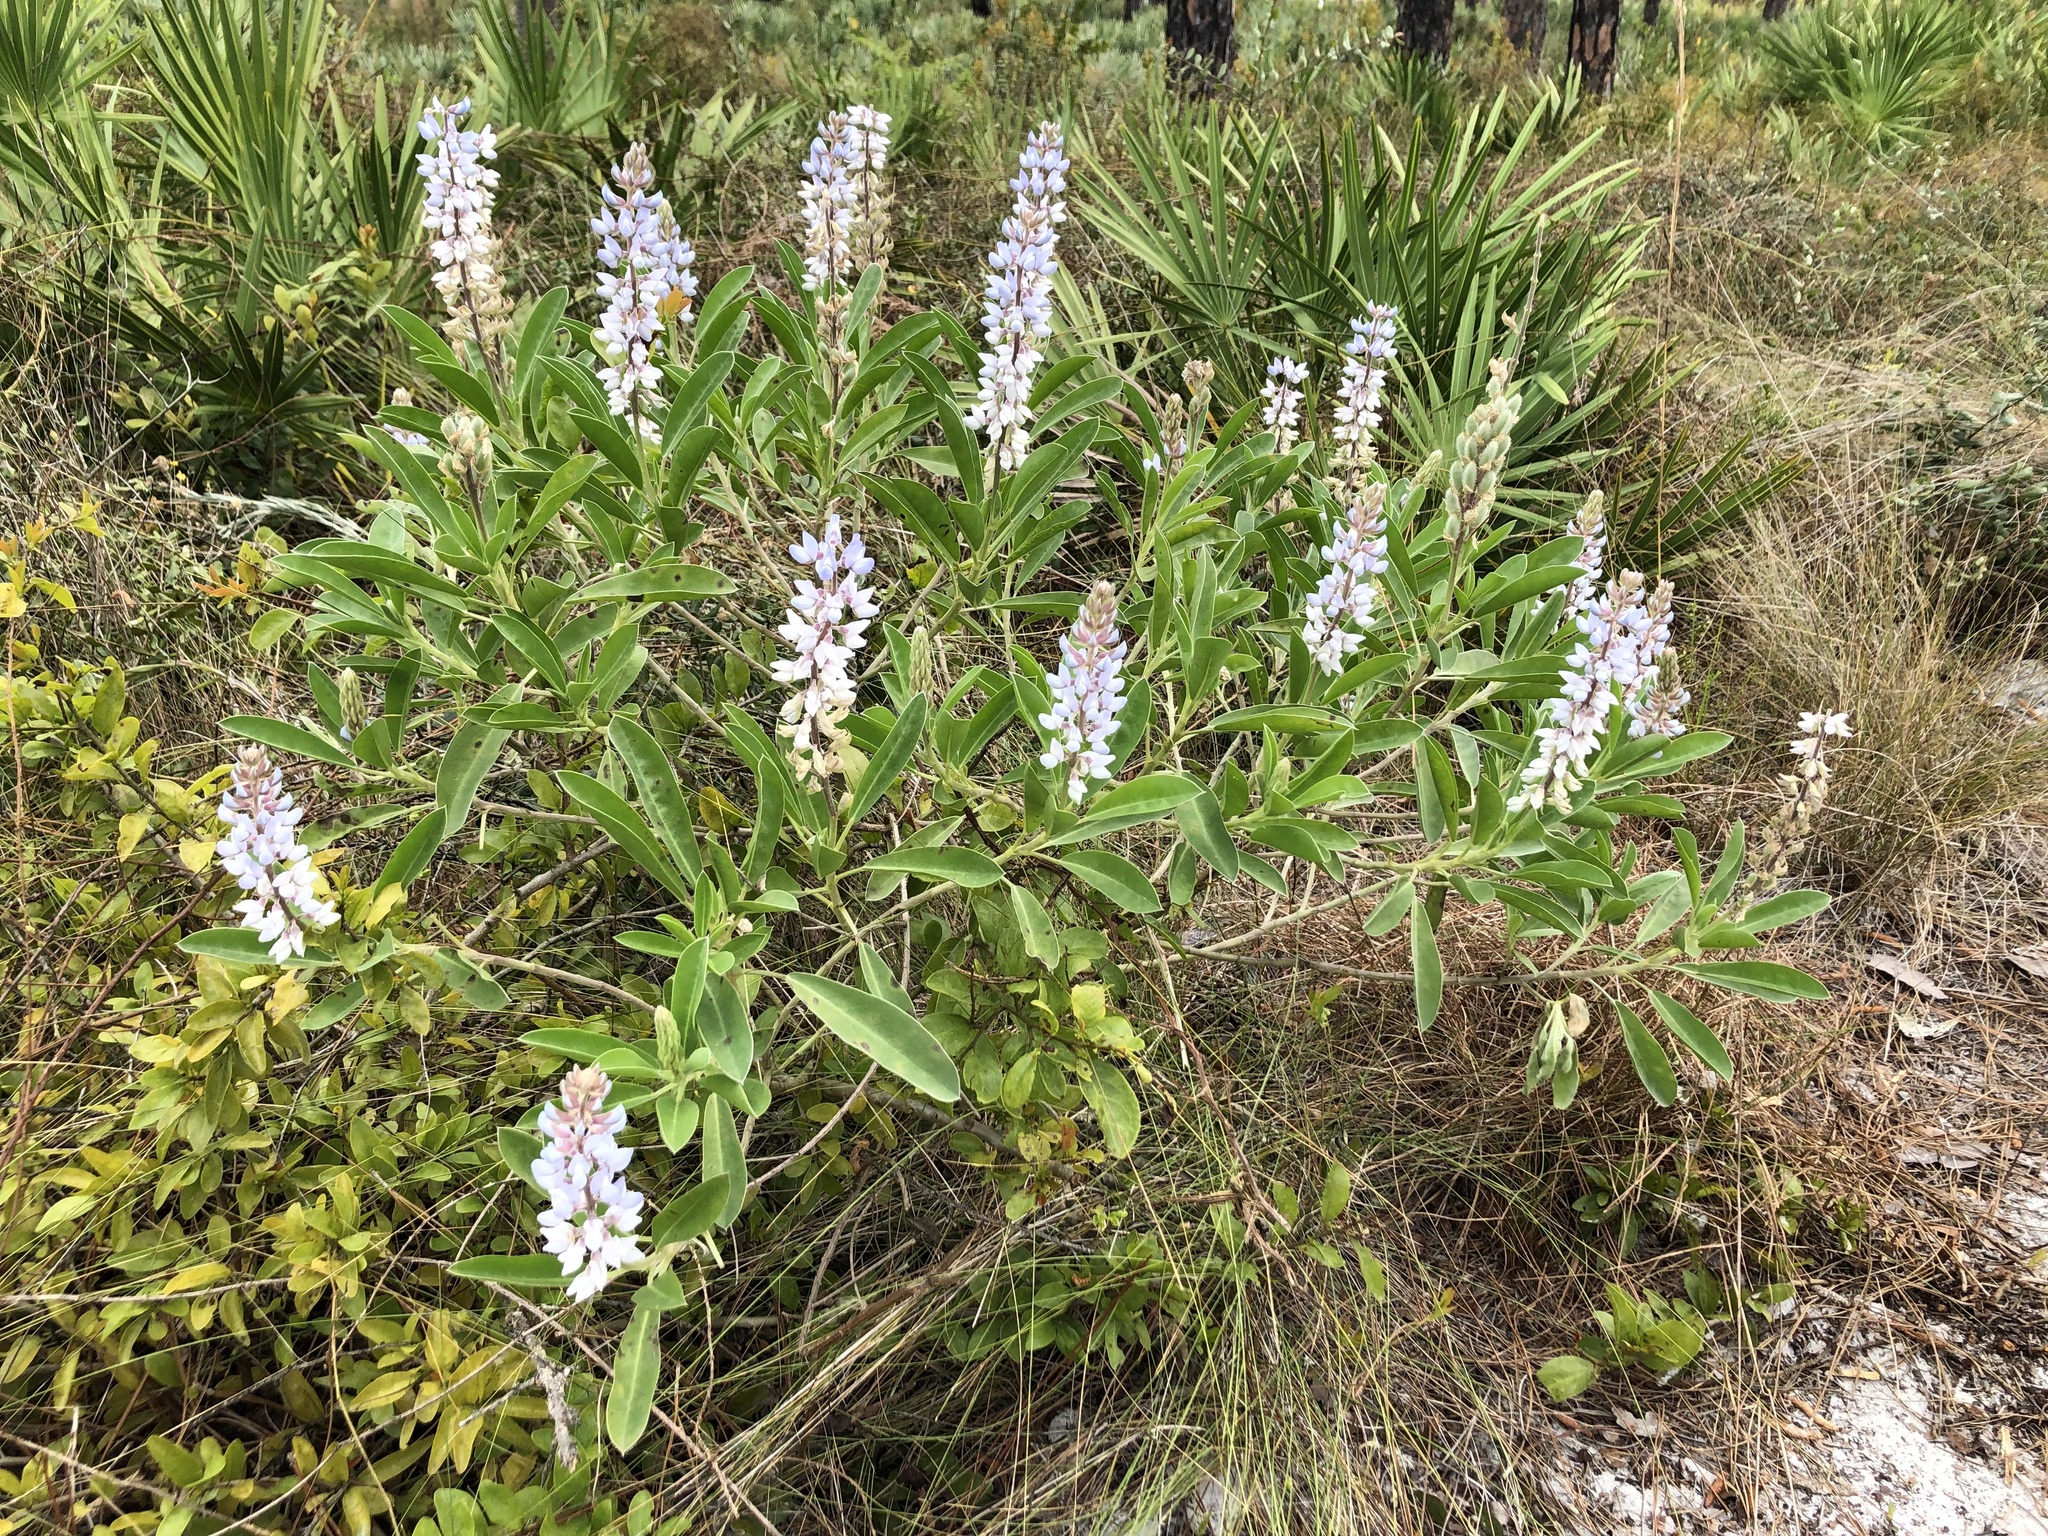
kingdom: Plantae
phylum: Tracheophyta
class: Magnoliopsida
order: Fabales
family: Fabaceae
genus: Lupinus
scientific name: Lupinus
